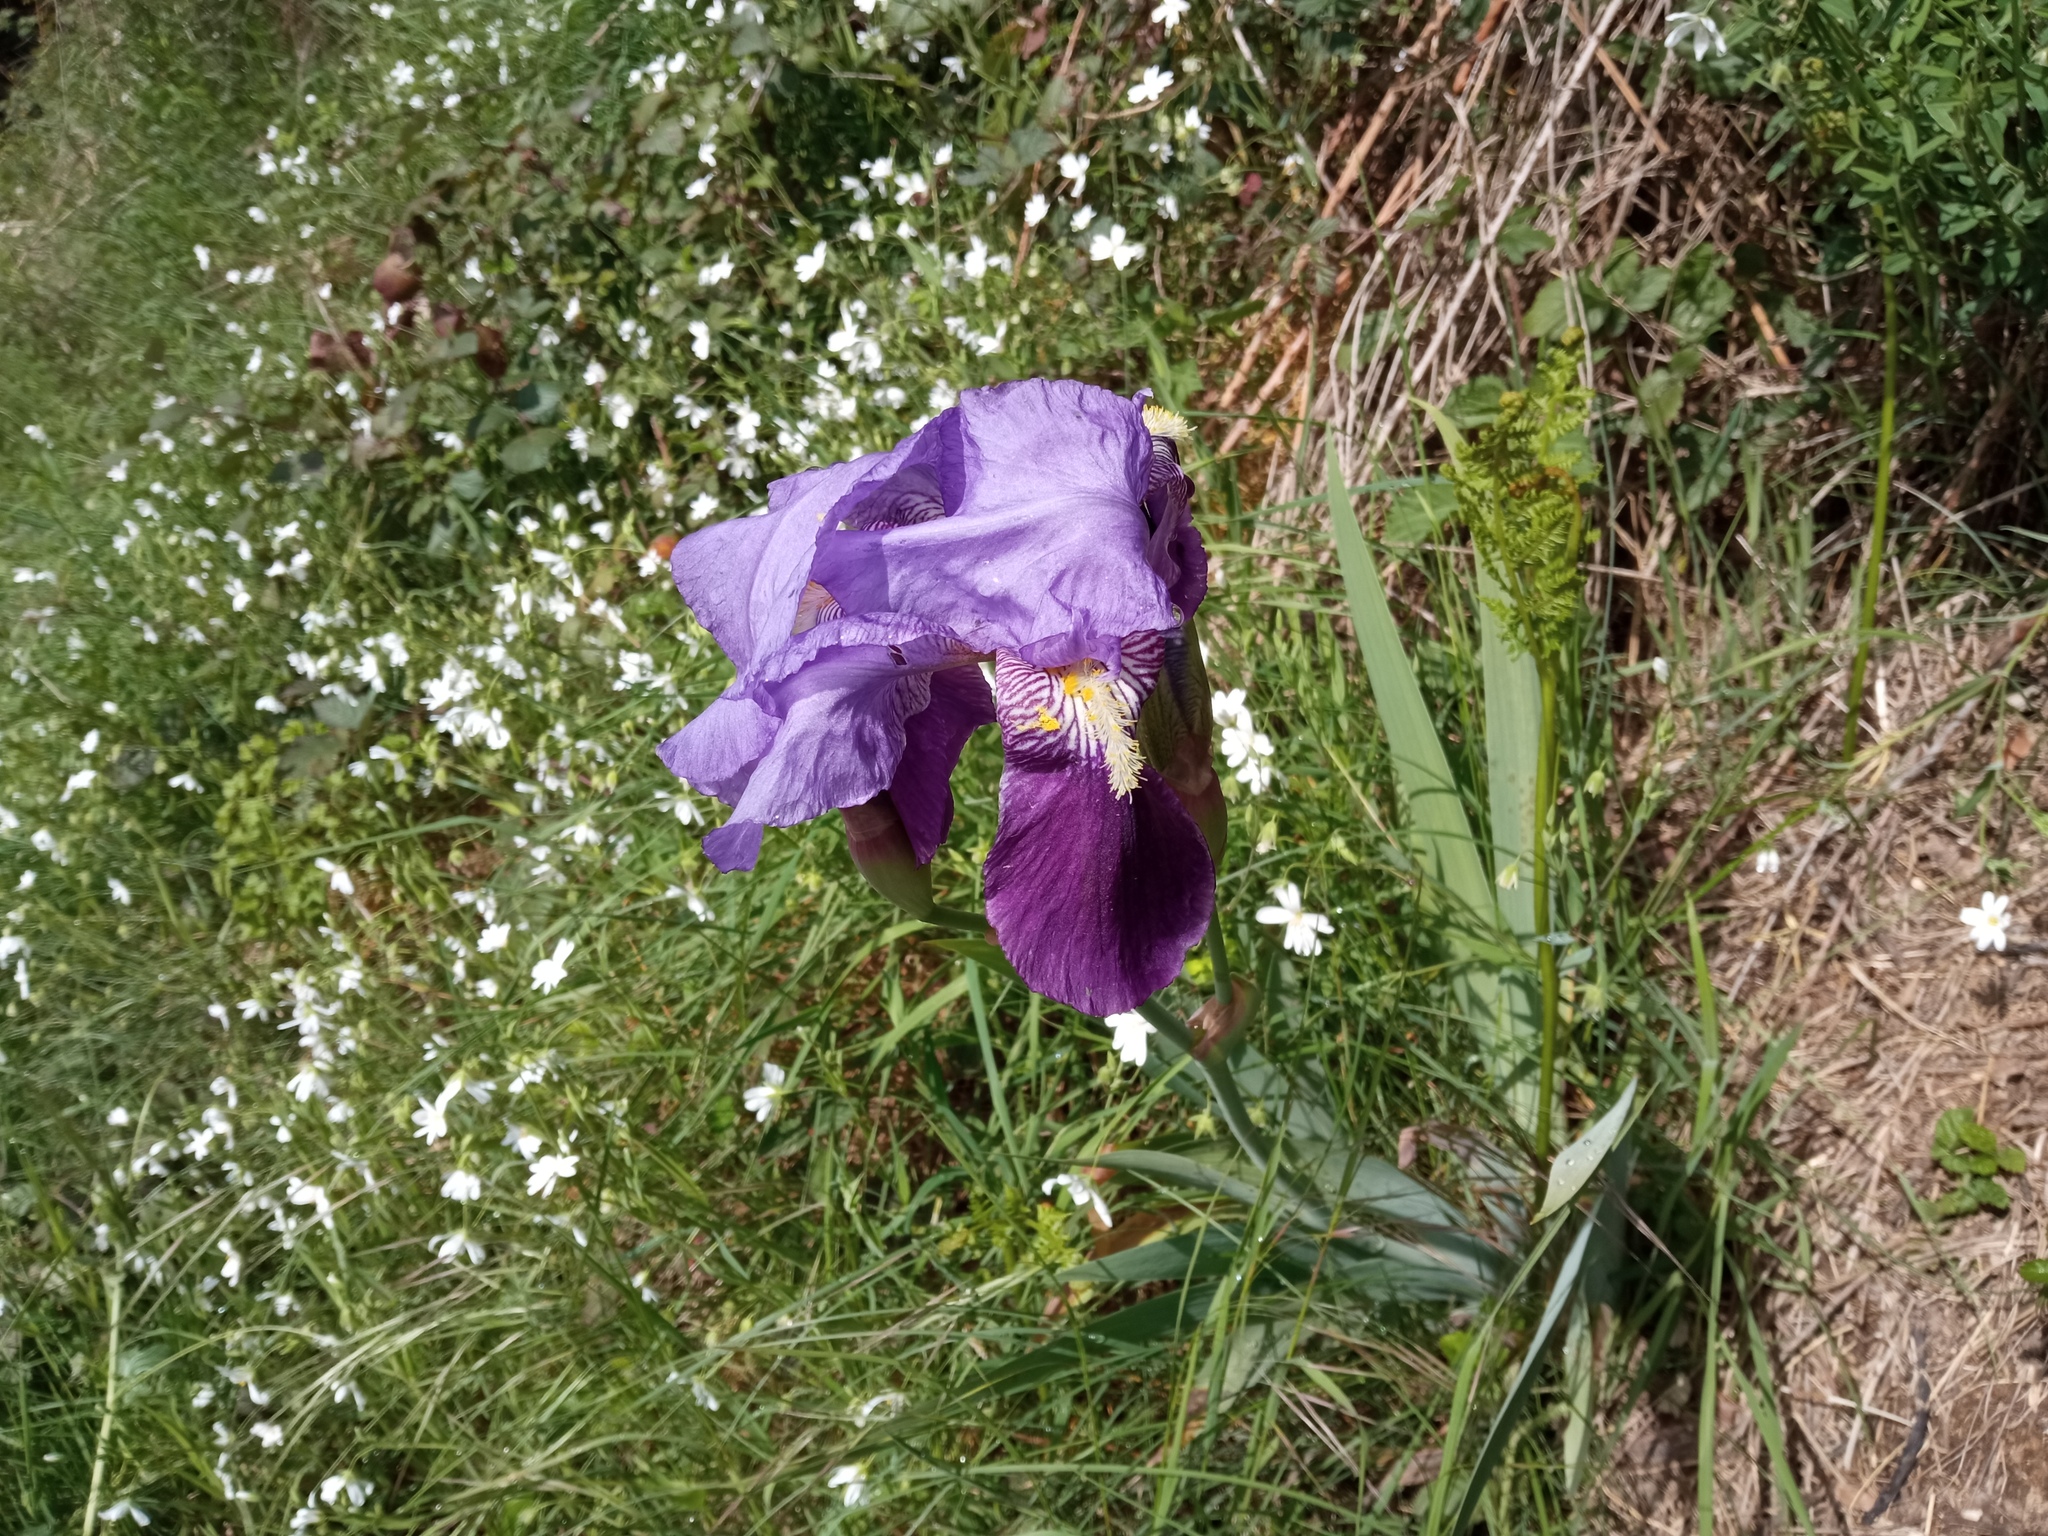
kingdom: Plantae
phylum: Tracheophyta
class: Liliopsida
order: Asparagales
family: Iridaceae
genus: Iris
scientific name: Iris germanica
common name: German iris
